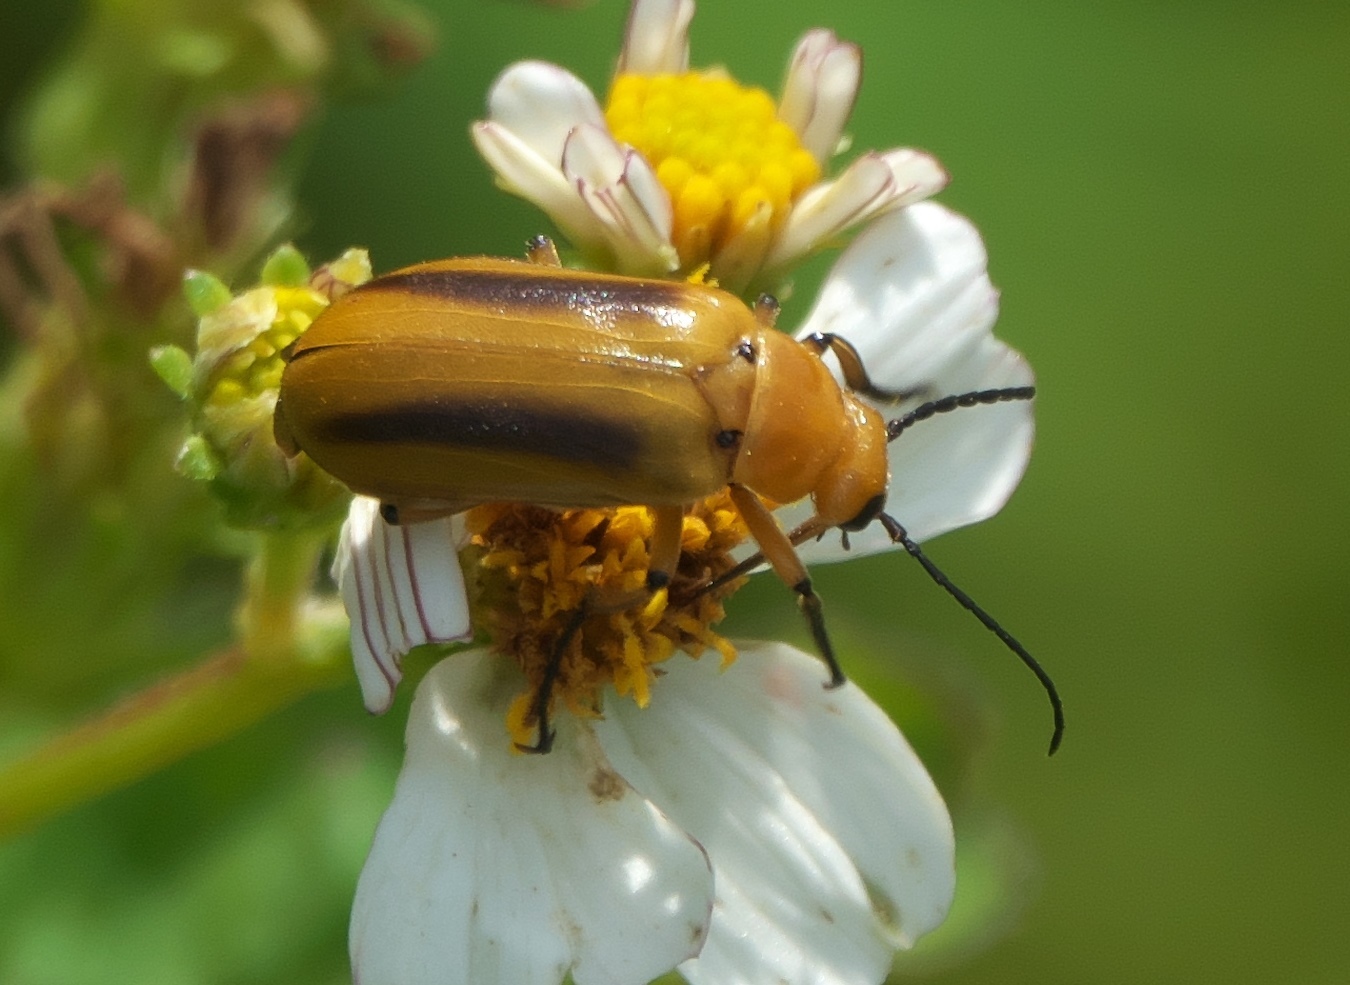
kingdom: Animalia
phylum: Arthropoda
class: Insecta
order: Coleoptera
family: Meloidae
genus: Nemognatha
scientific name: Nemognatha punctulata
